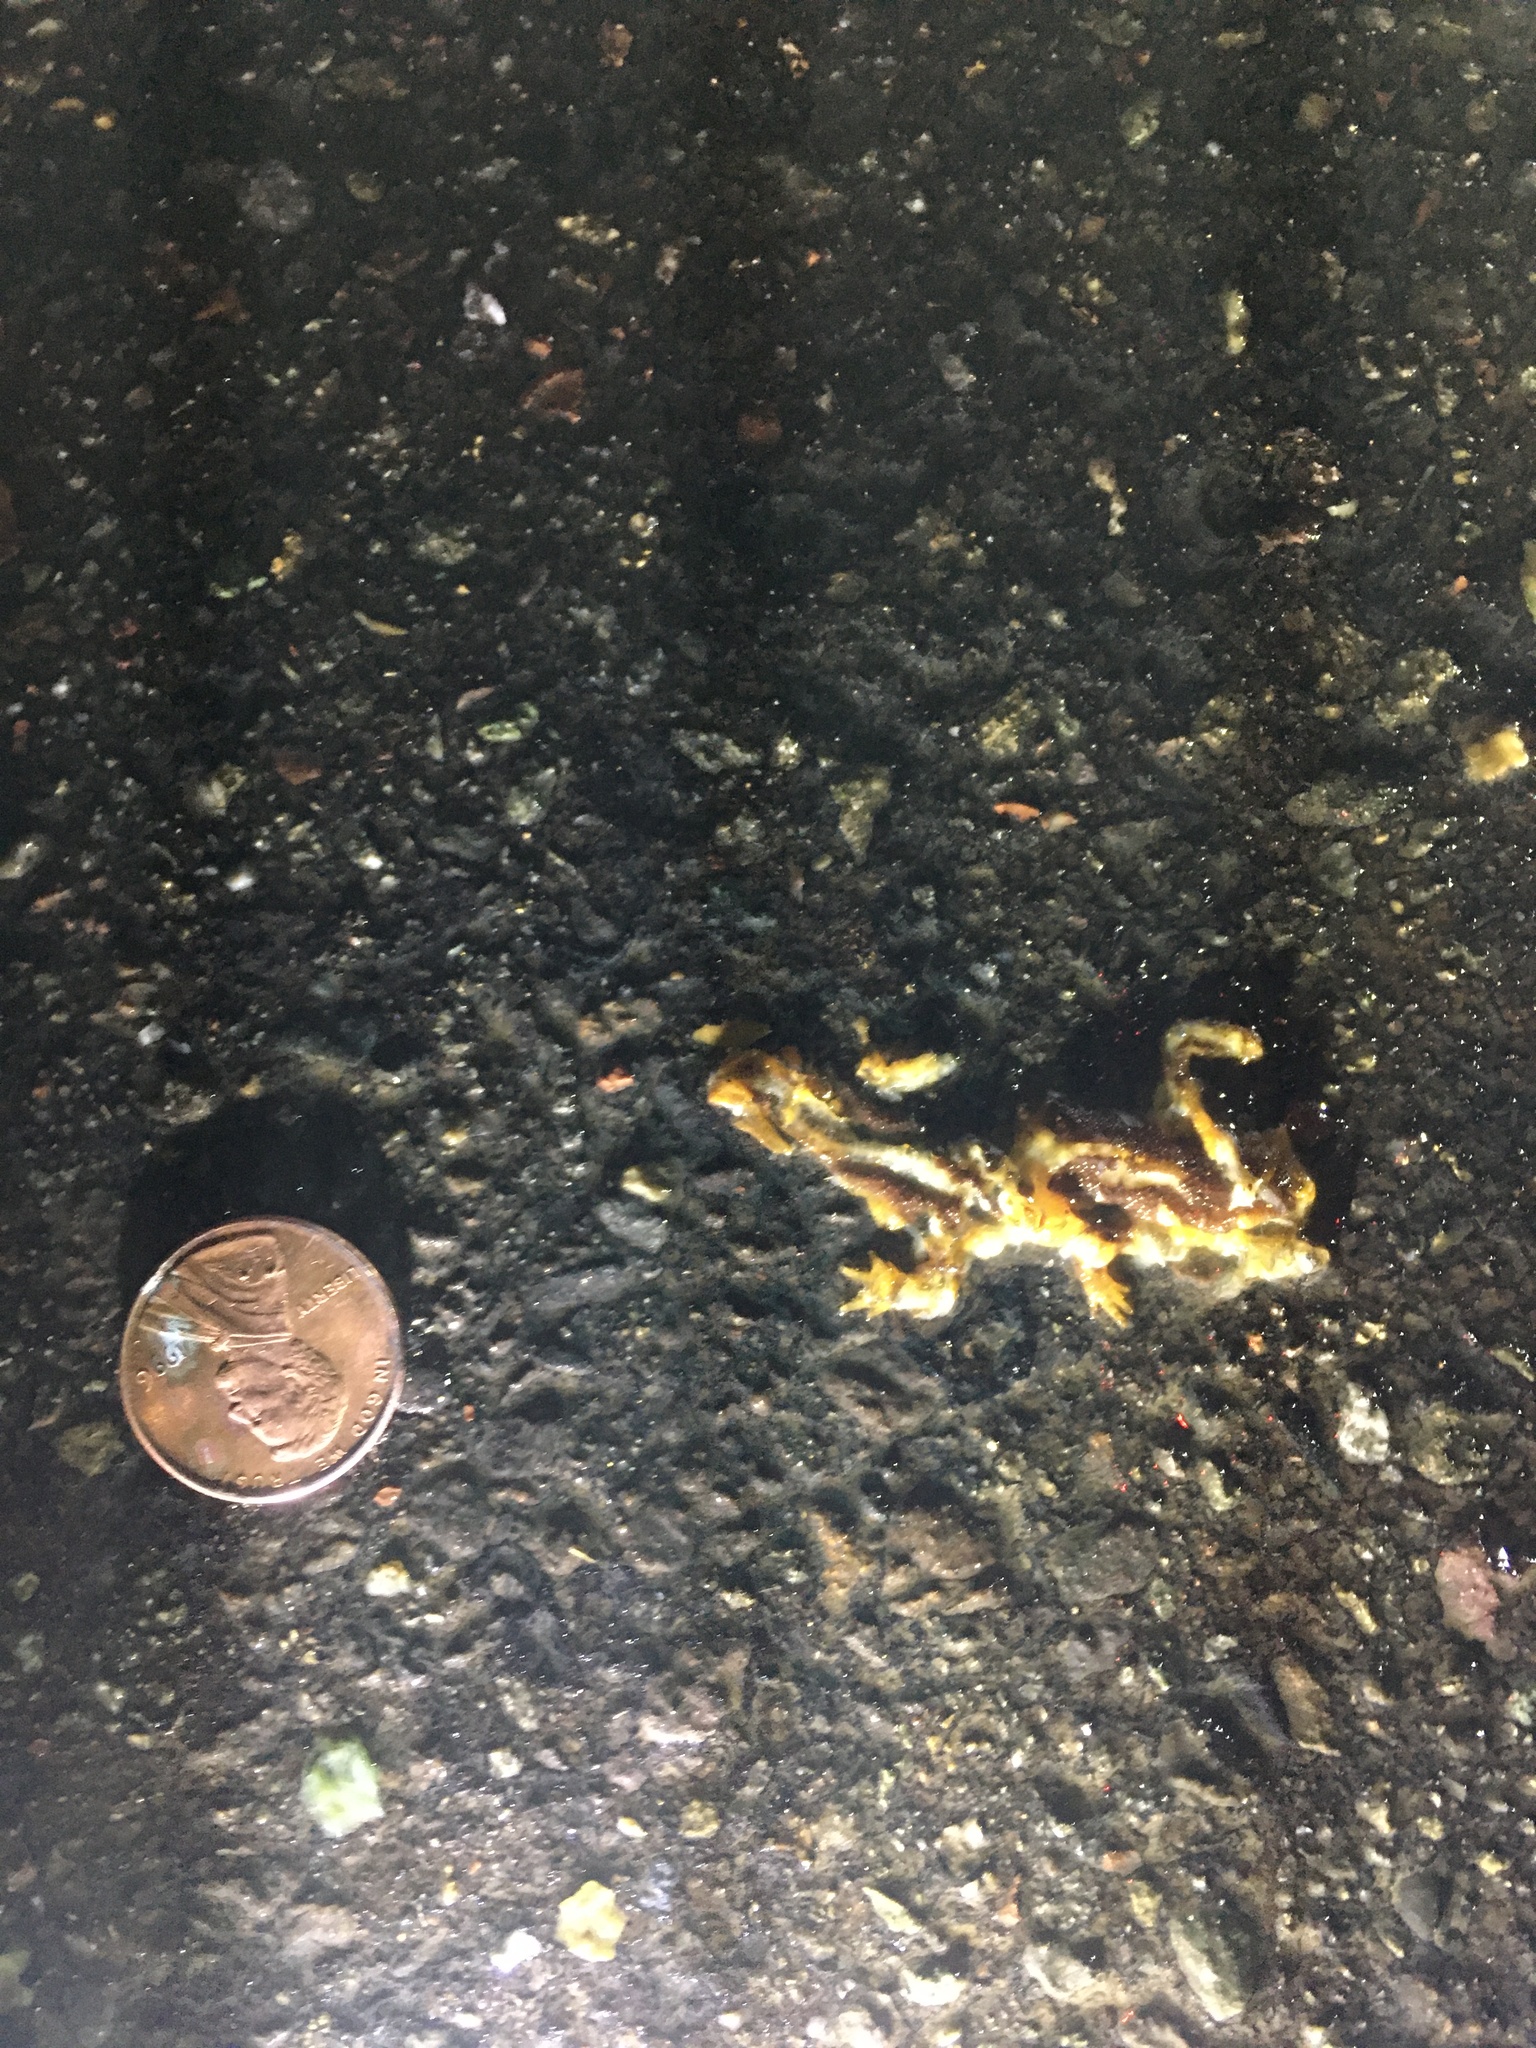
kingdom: Animalia
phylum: Chordata
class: Amphibia
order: Caudata
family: Salamandridae
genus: Taricha
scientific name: Taricha
